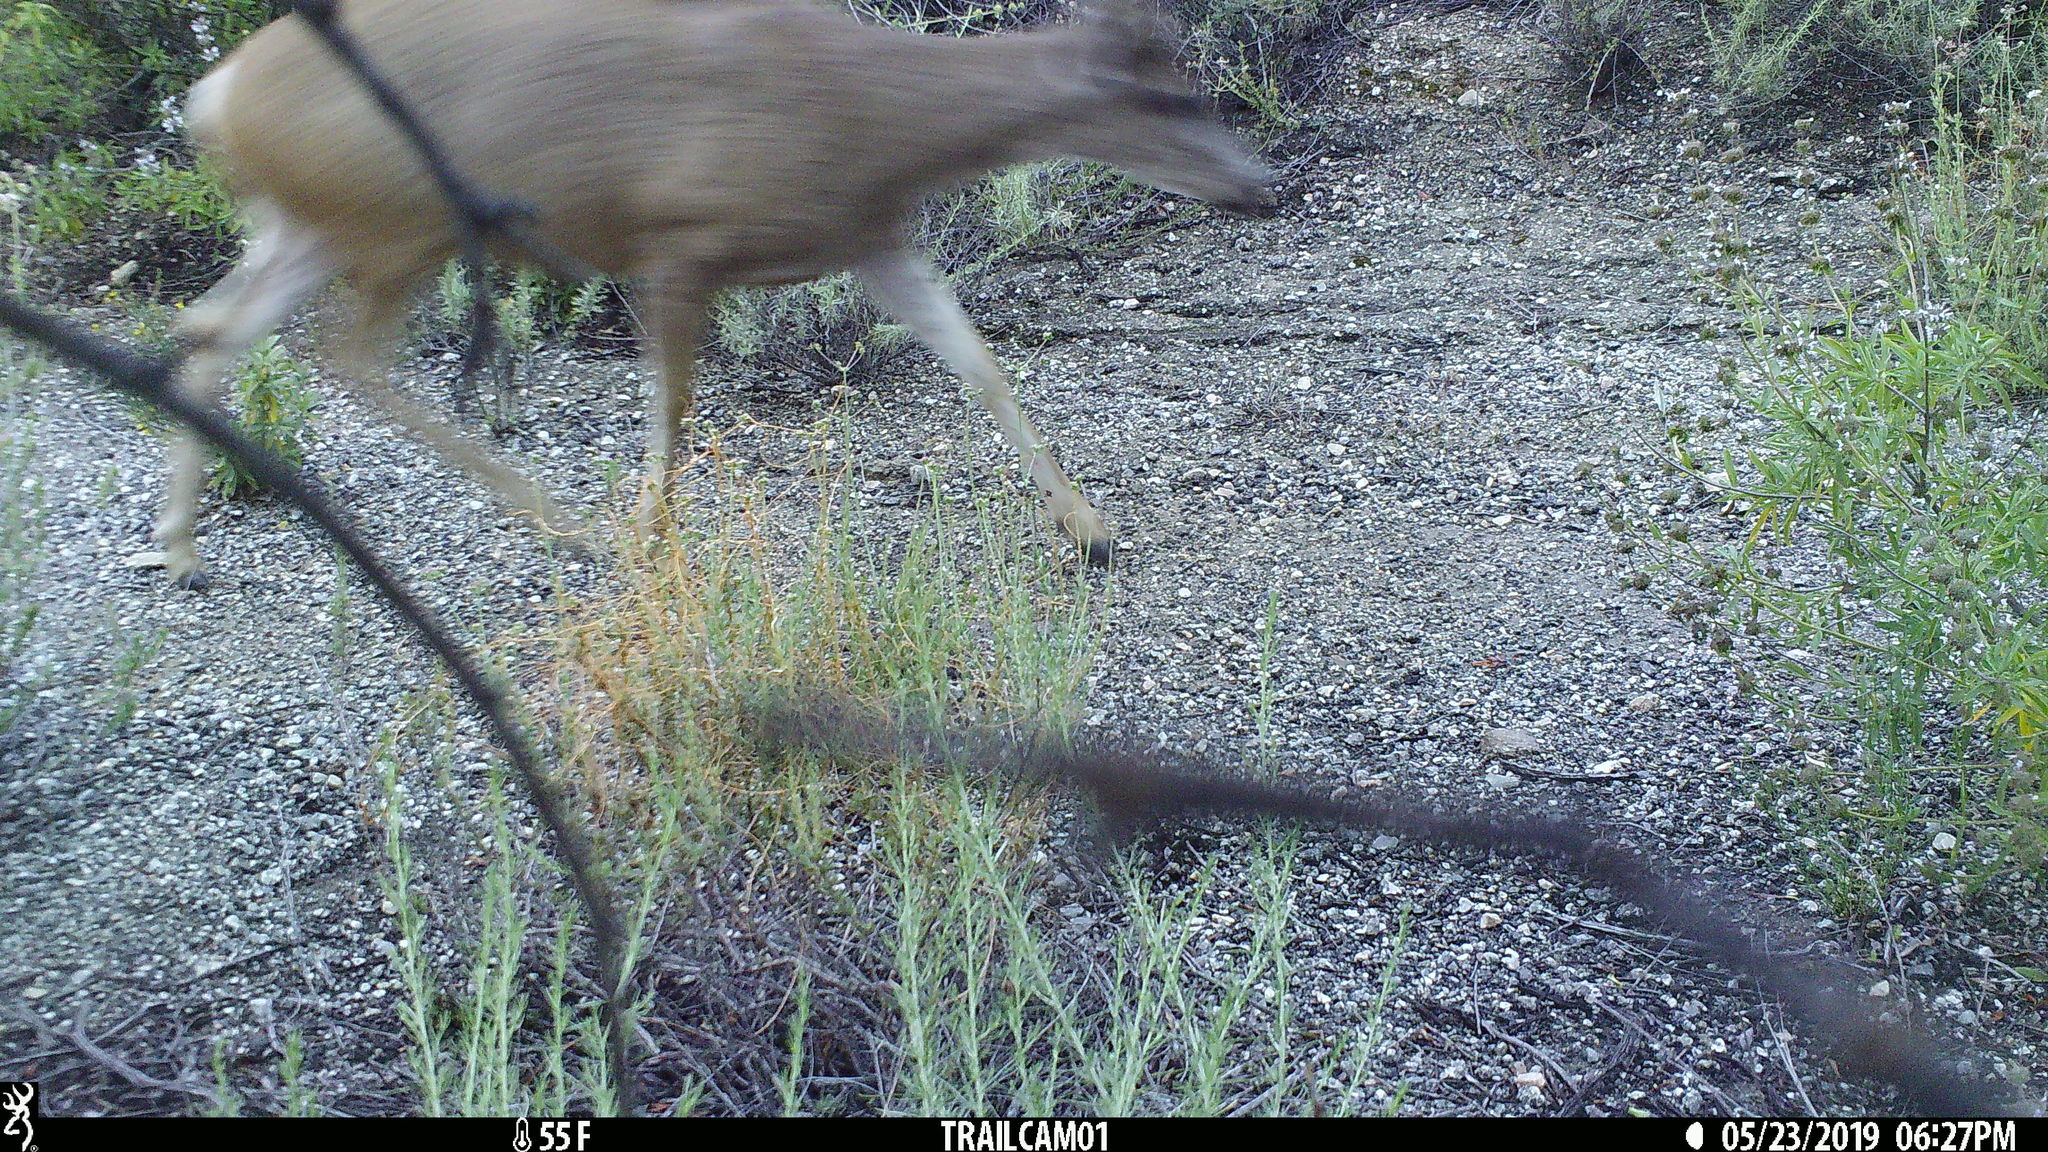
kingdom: Animalia
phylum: Chordata
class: Mammalia
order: Artiodactyla
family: Cervidae
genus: Odocoileus
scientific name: Odocoileus hemionus
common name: Mule deer
